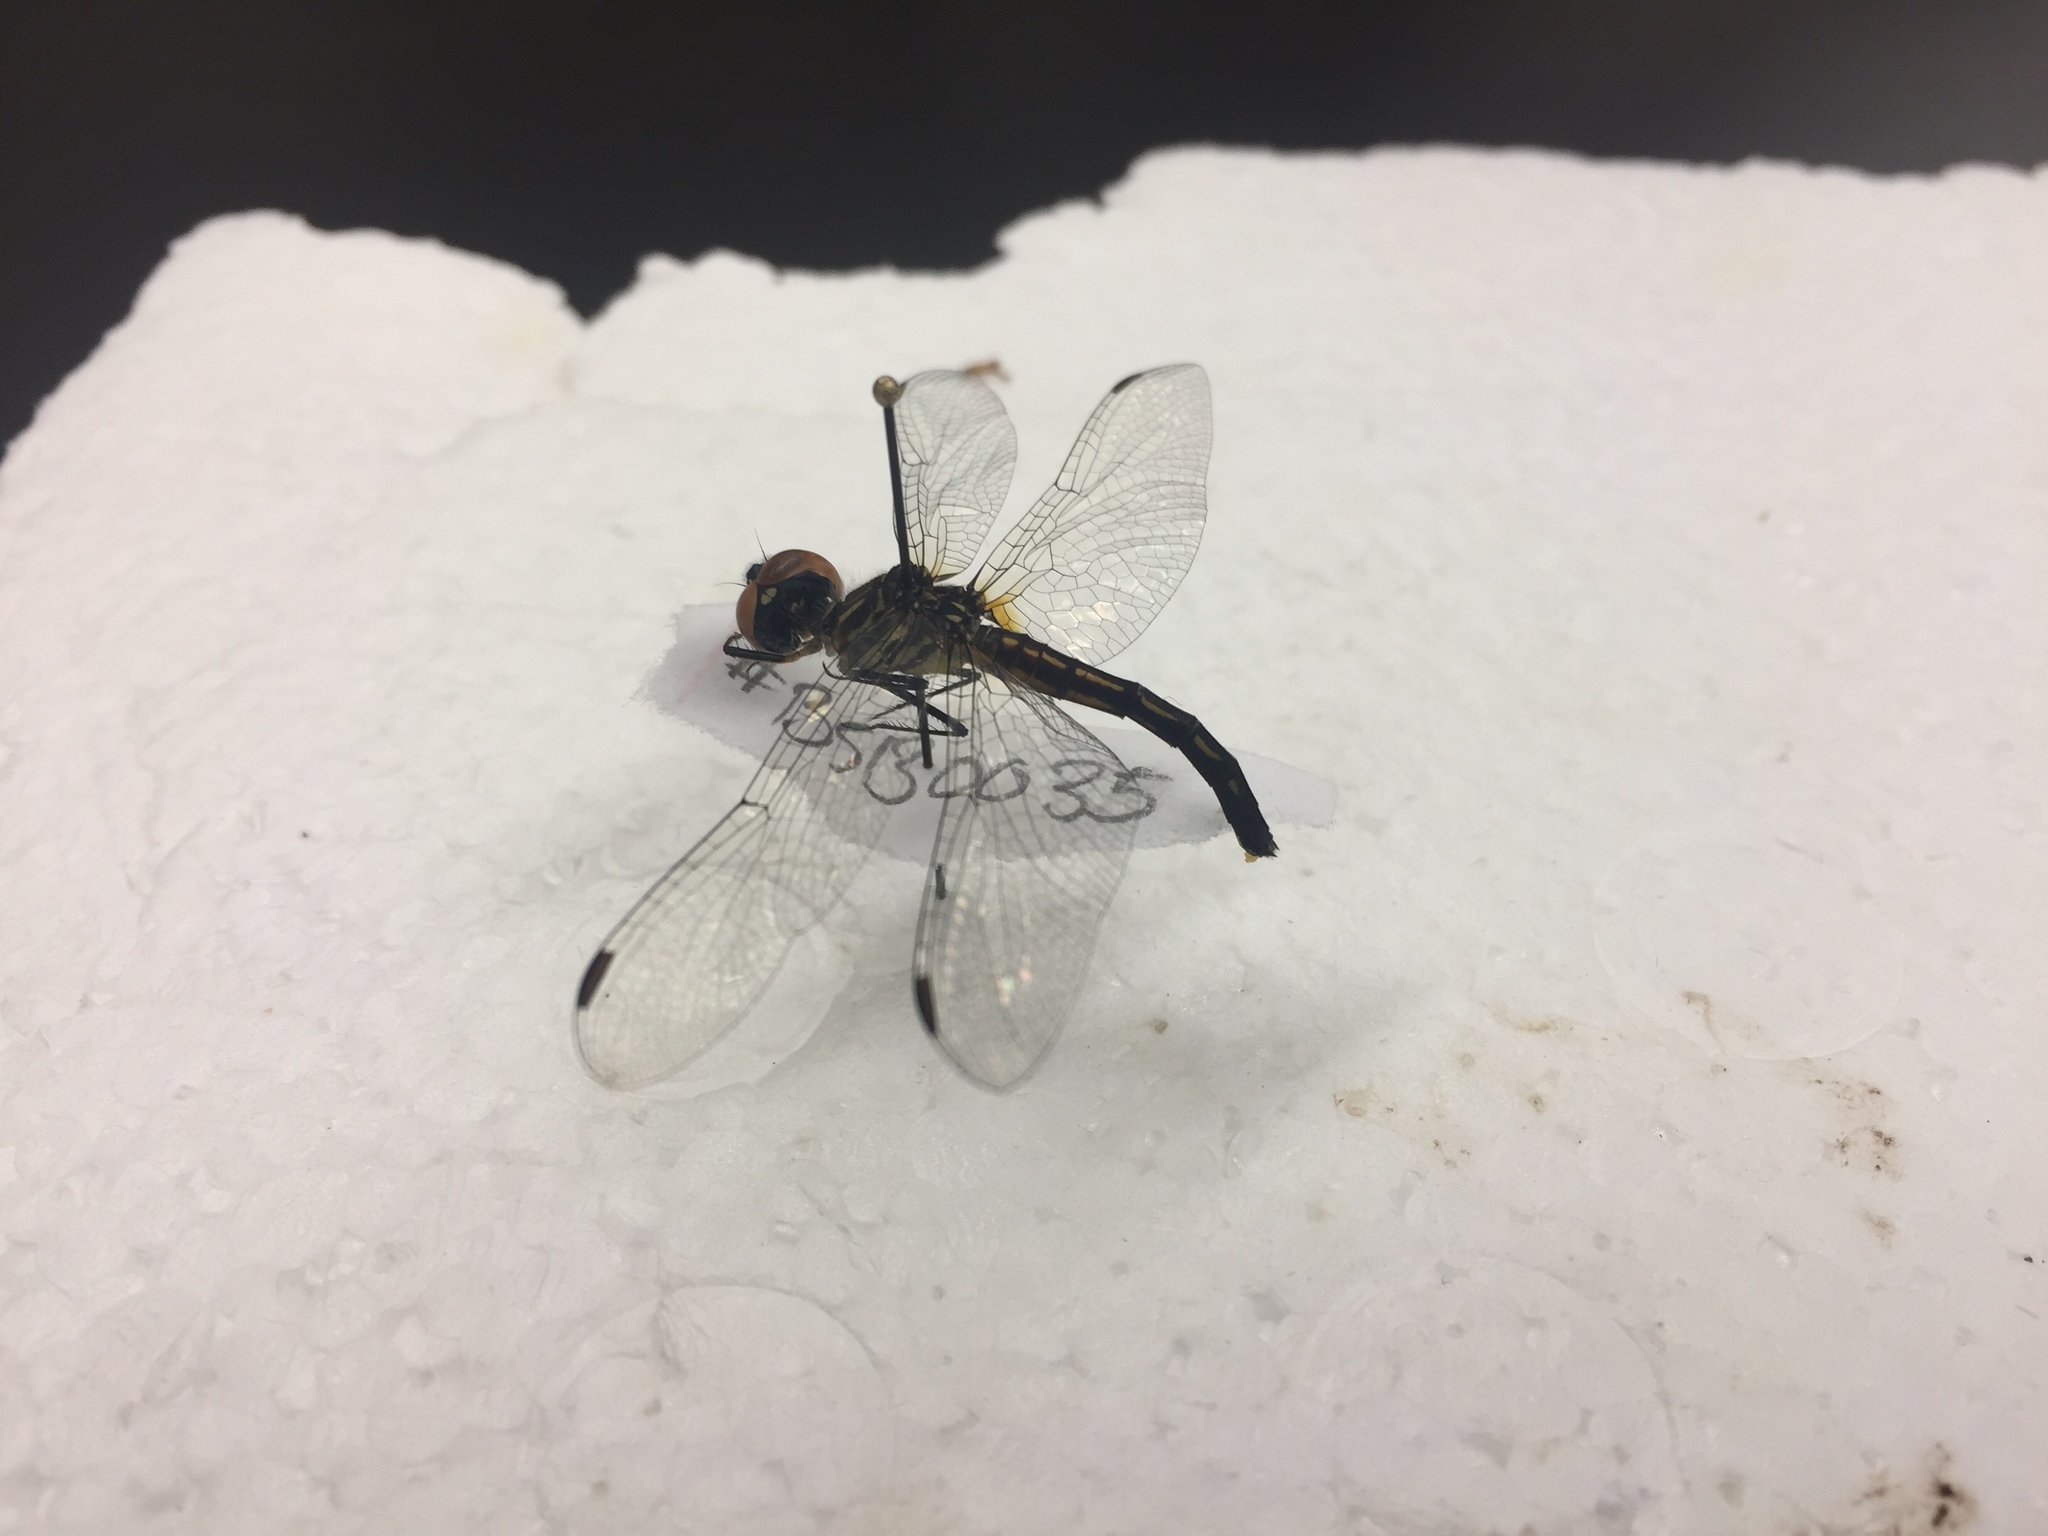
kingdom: Animalia
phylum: Arthropoda
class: Insecta
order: Odonata
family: Libellulidae
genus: Pachydiplax
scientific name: Pachydiplax longipennis
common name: Blue dasher
